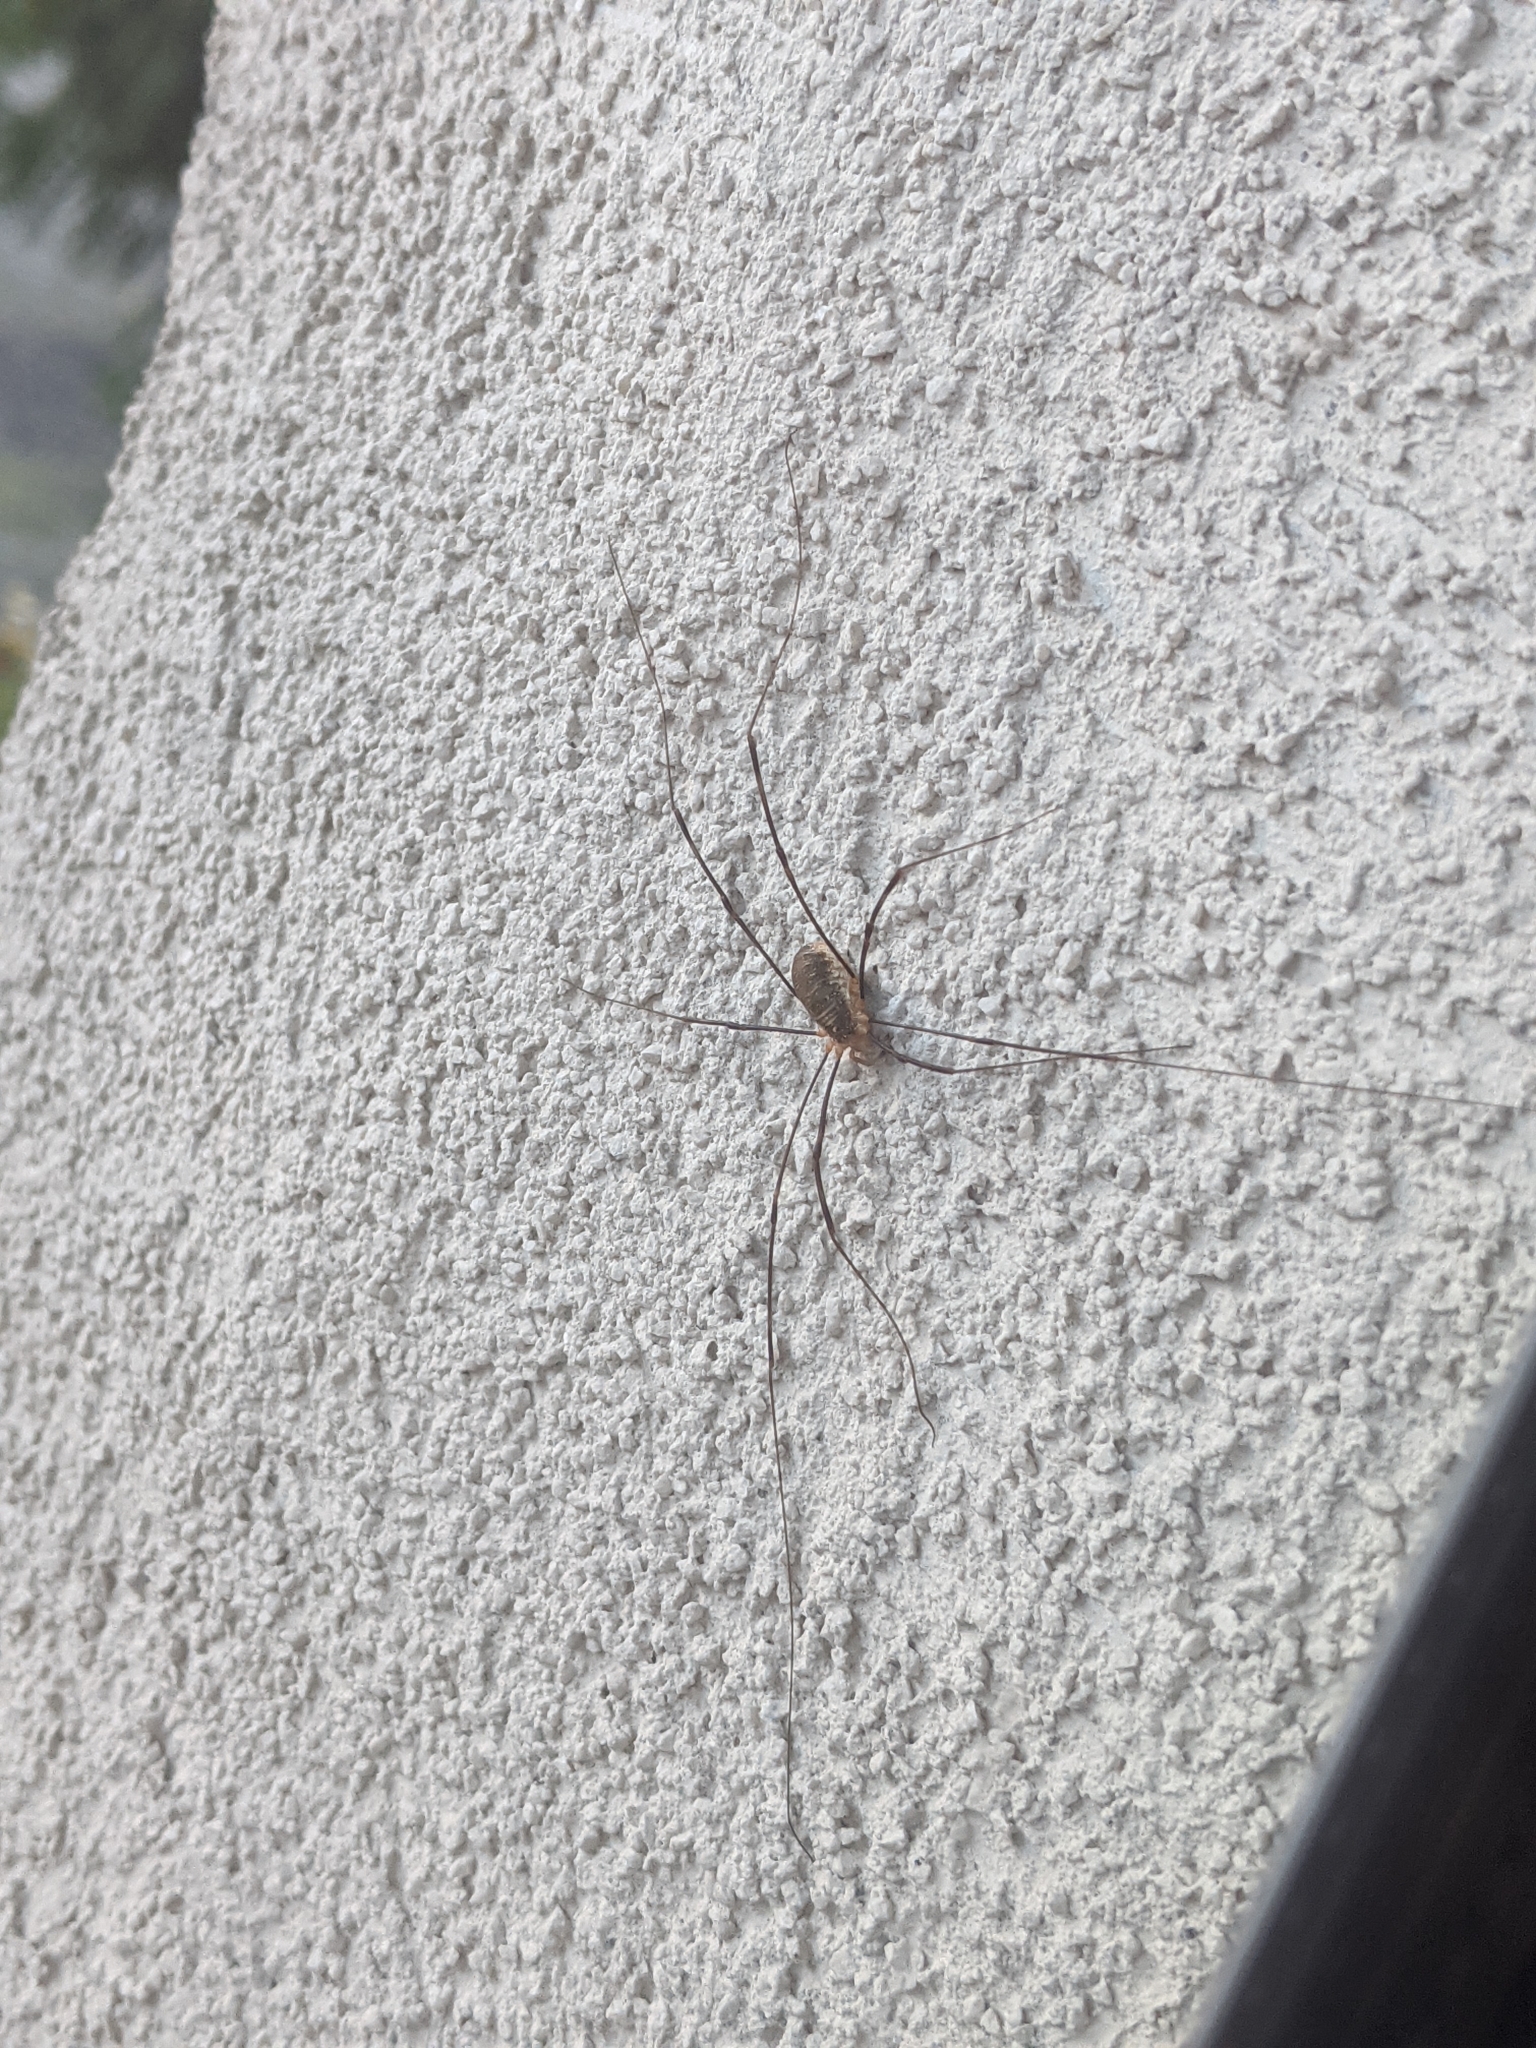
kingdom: Animalia
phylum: Arthropoda
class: Arachnida
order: Opiliones
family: Phalangiidae
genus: Opilio
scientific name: Opilio canestrinii
